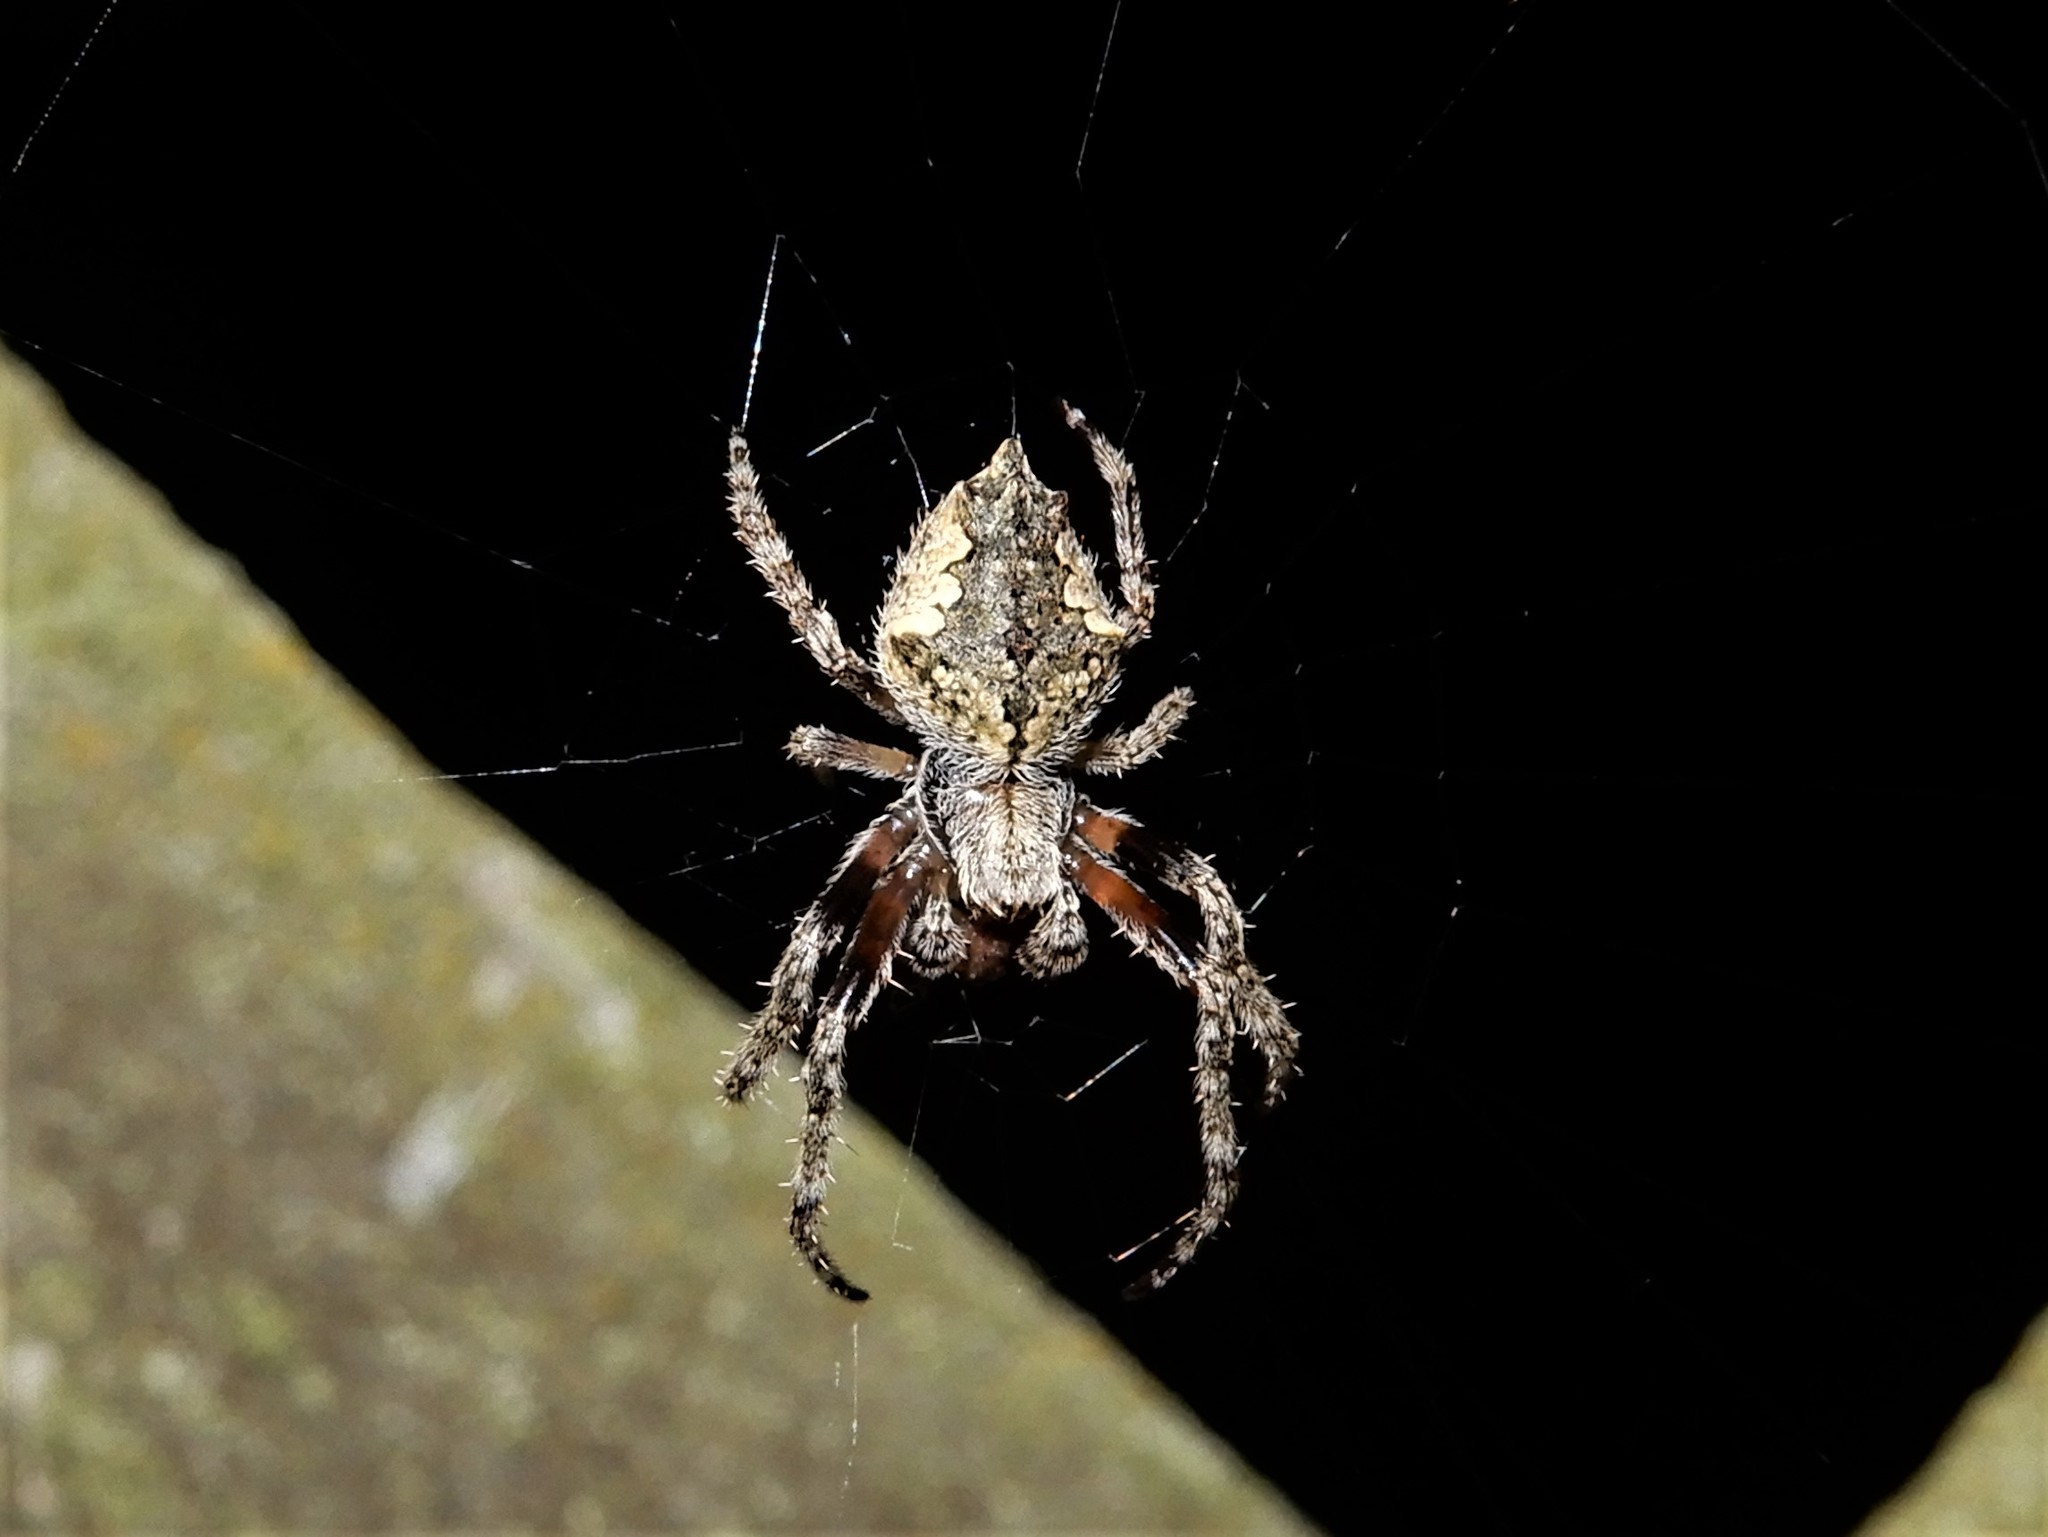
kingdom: Animalia
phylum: Arthropoda
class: Arachnida
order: Araneae
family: Araneidae
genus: Eriophora
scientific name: Eriophora pustulosa
